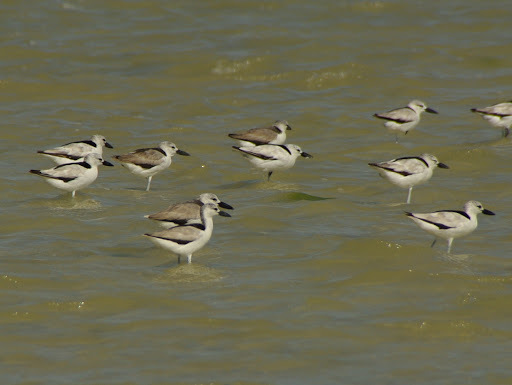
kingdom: Animalia
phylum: Chordata
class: Aves
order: Charadriiformes
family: Dromadidae
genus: Dromas
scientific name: Dromas ardeola
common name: Crab-plover
